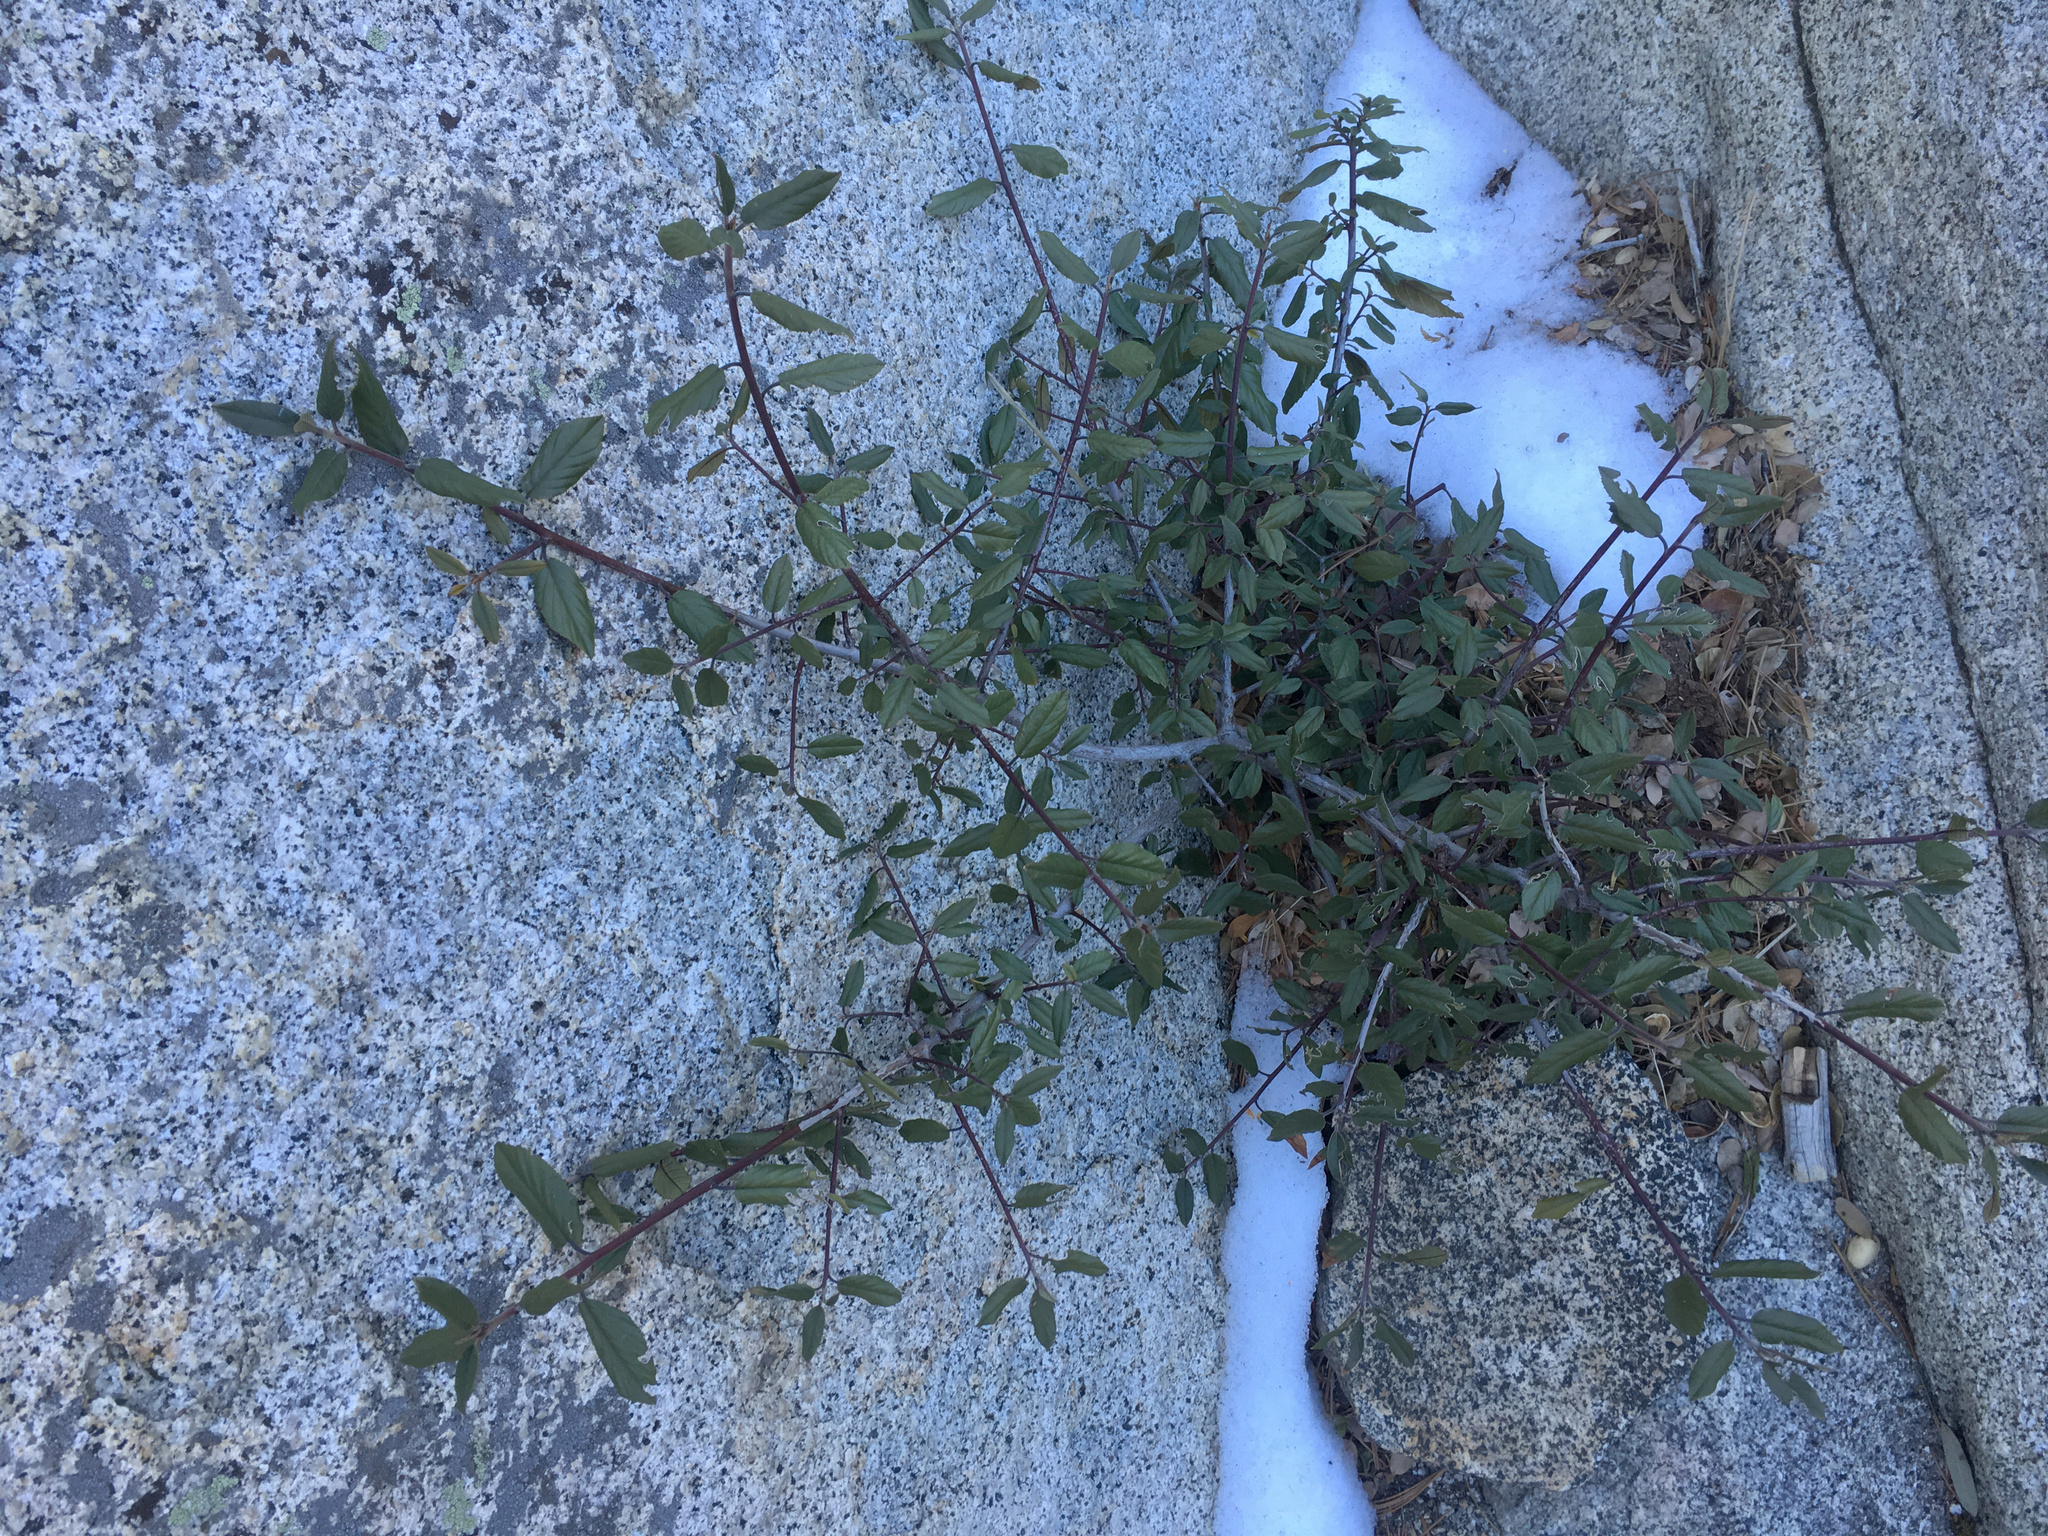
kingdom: Plantae
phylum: Tracheophyta
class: Magnoliopsida
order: Rosales
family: Rhamnaceae
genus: Frangula
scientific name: Frangula californica
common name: California buckthorn
